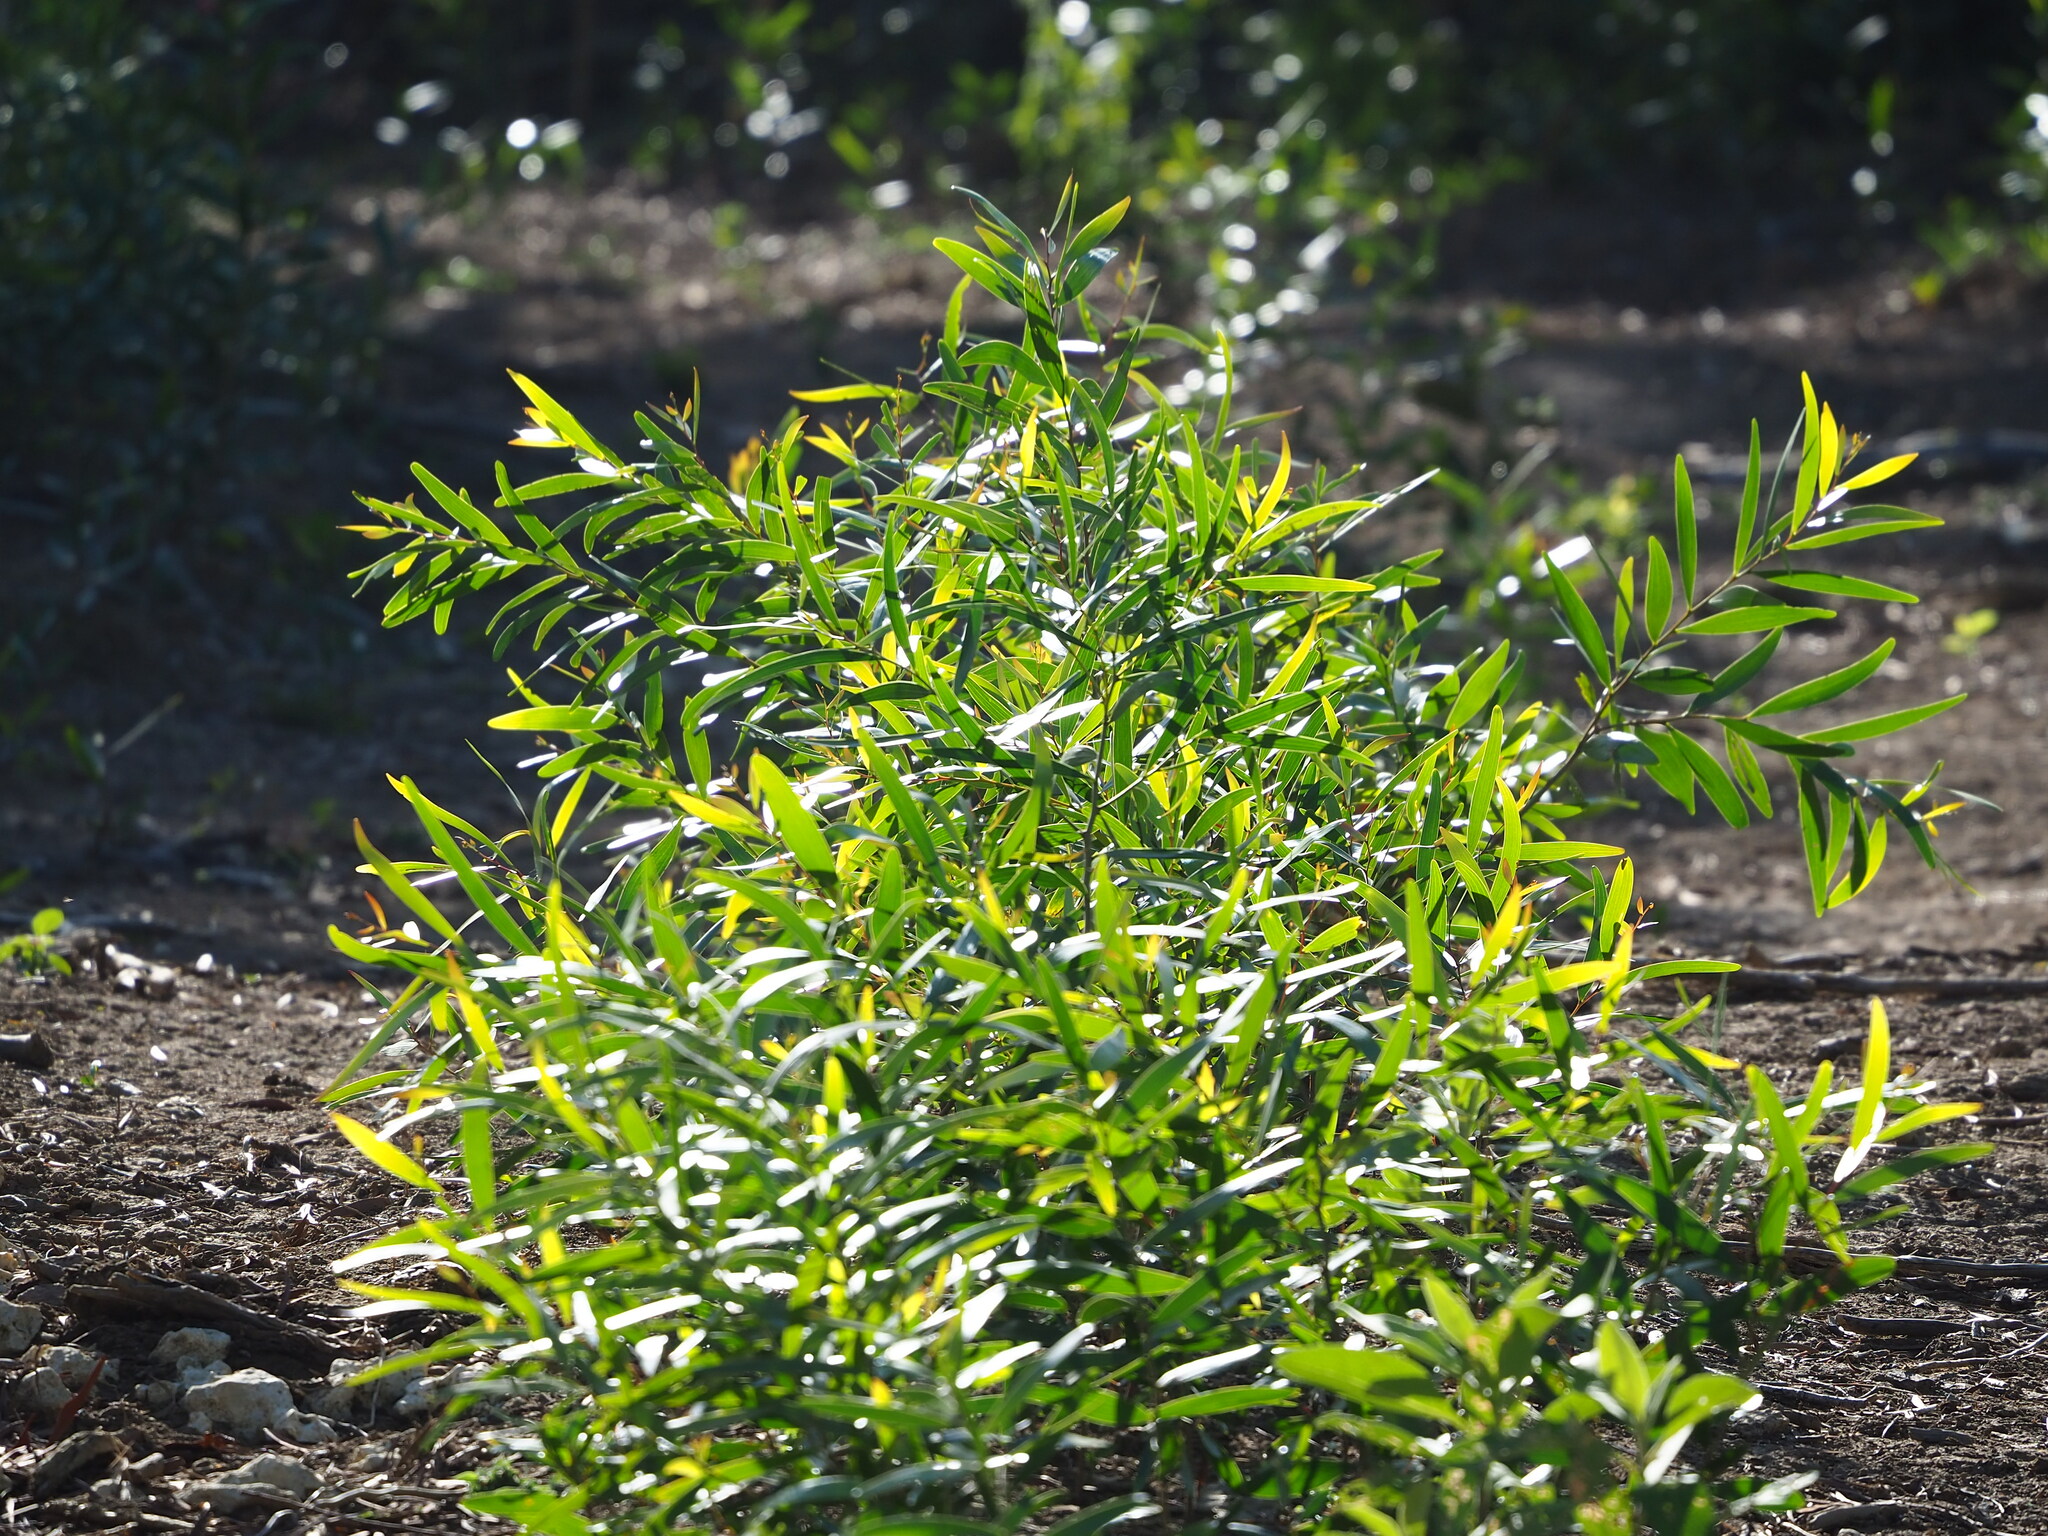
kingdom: Plantae
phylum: Tracheophyta
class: Magnoliopsida
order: Fabales
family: Fabaceae
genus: Acacia
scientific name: Acacia confusa
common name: Formosan koa
